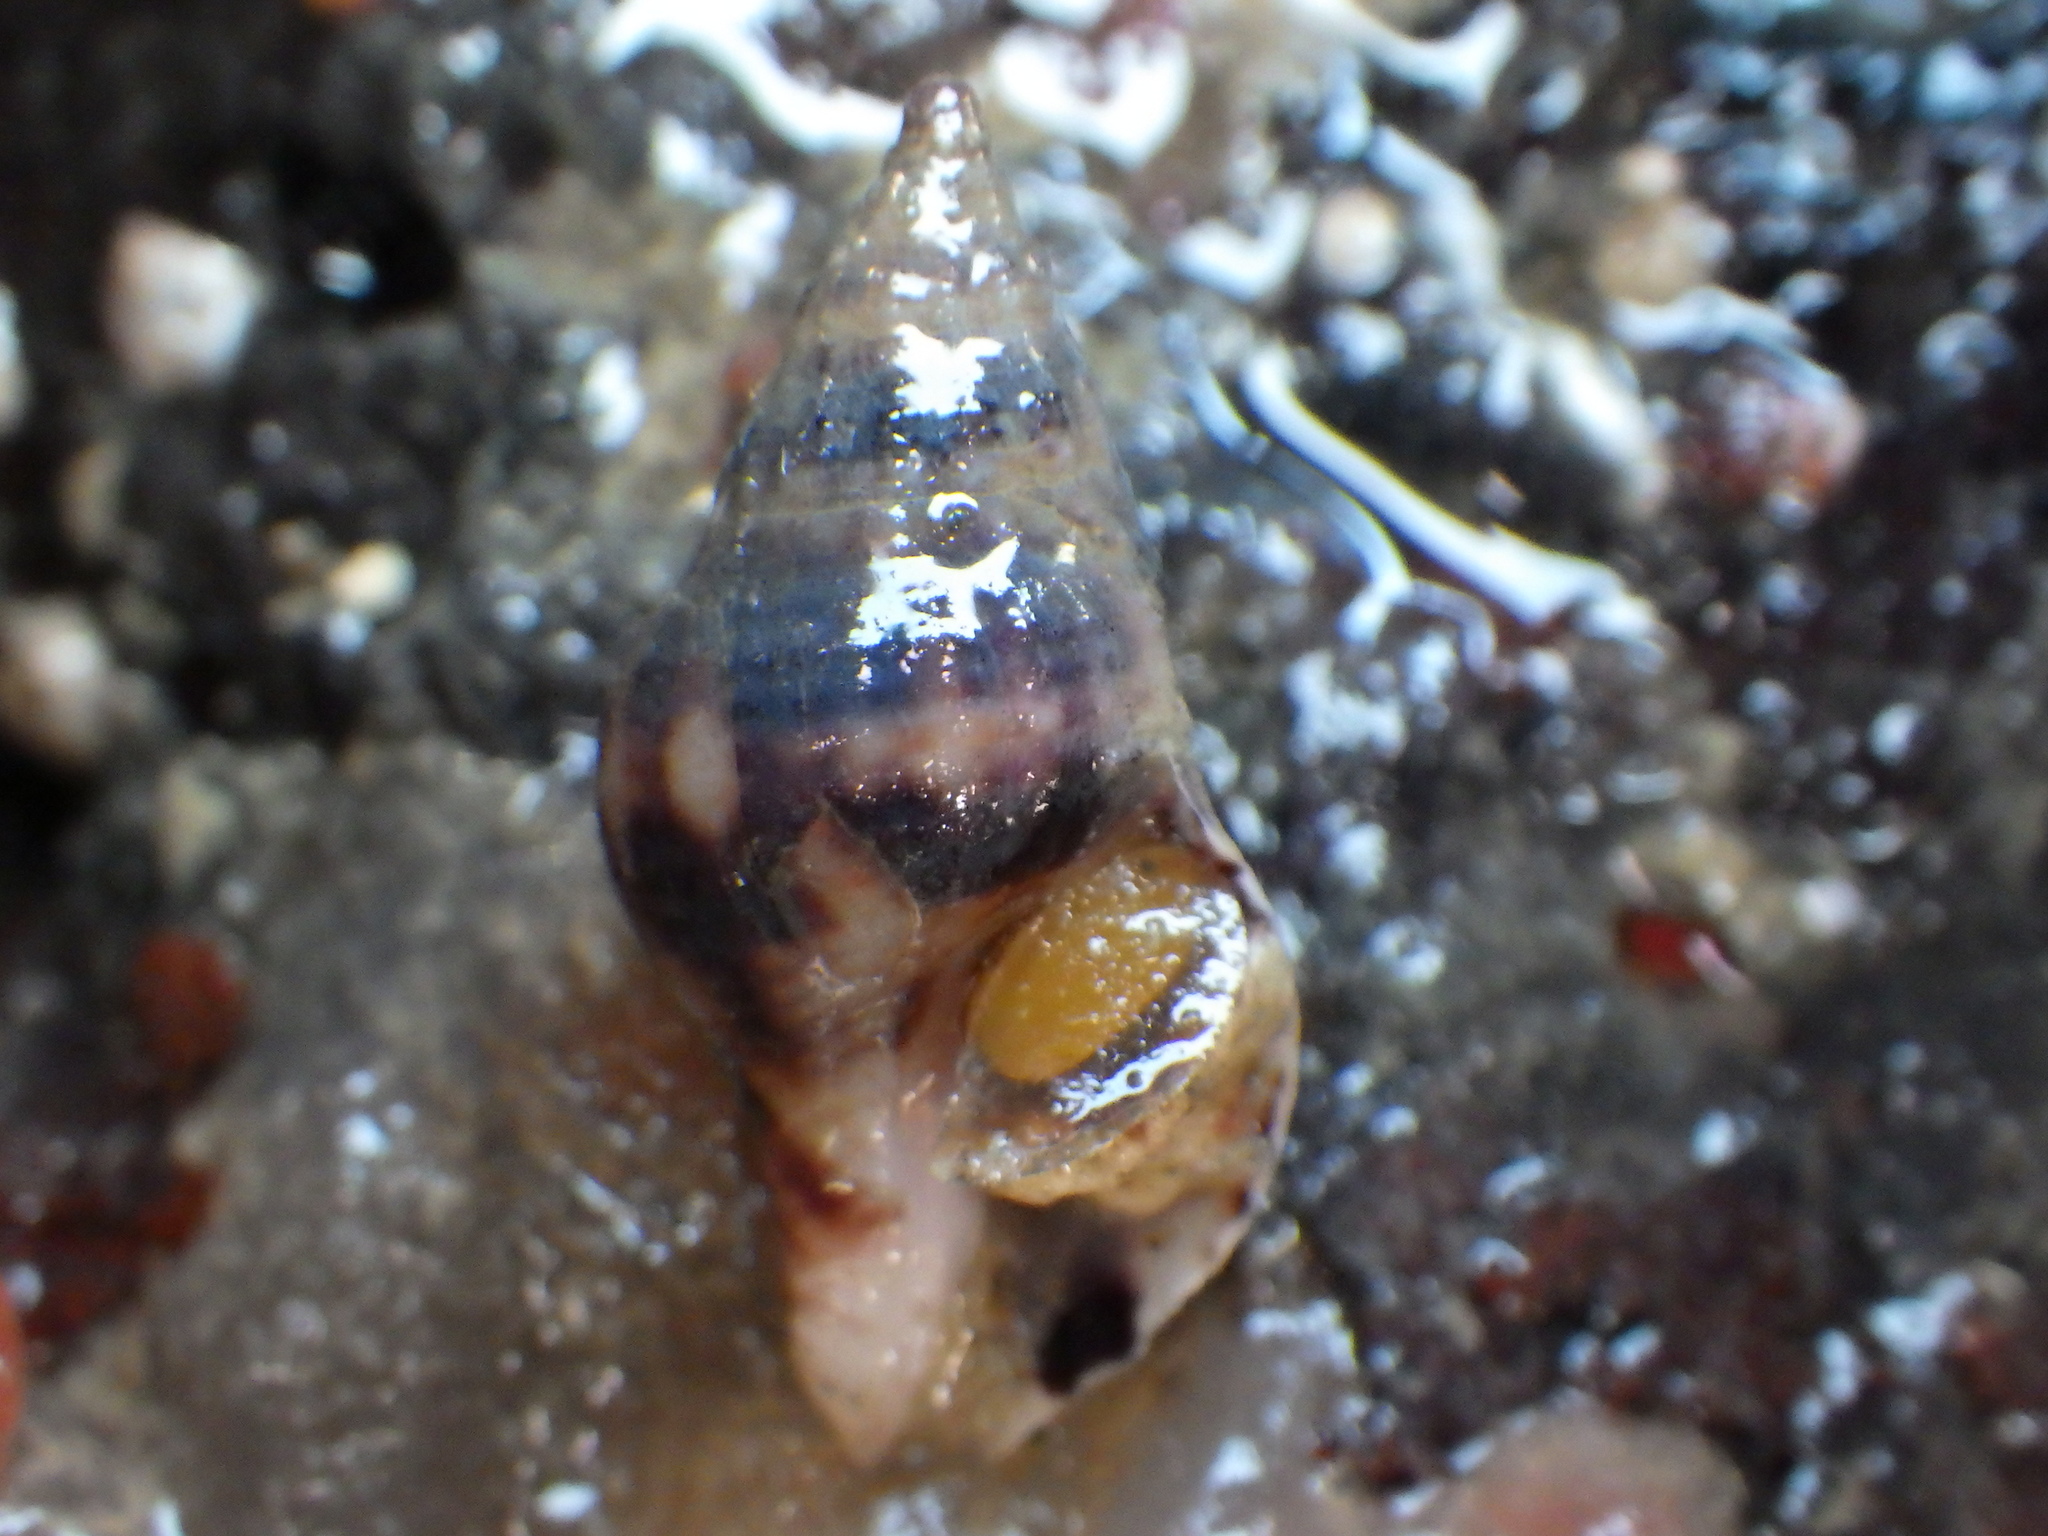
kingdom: Animalia
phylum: Mollusca
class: Gastropoda
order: Neogastropoda
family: Tudiclidae
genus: Buccinulum
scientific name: Buccinulum vittatum
